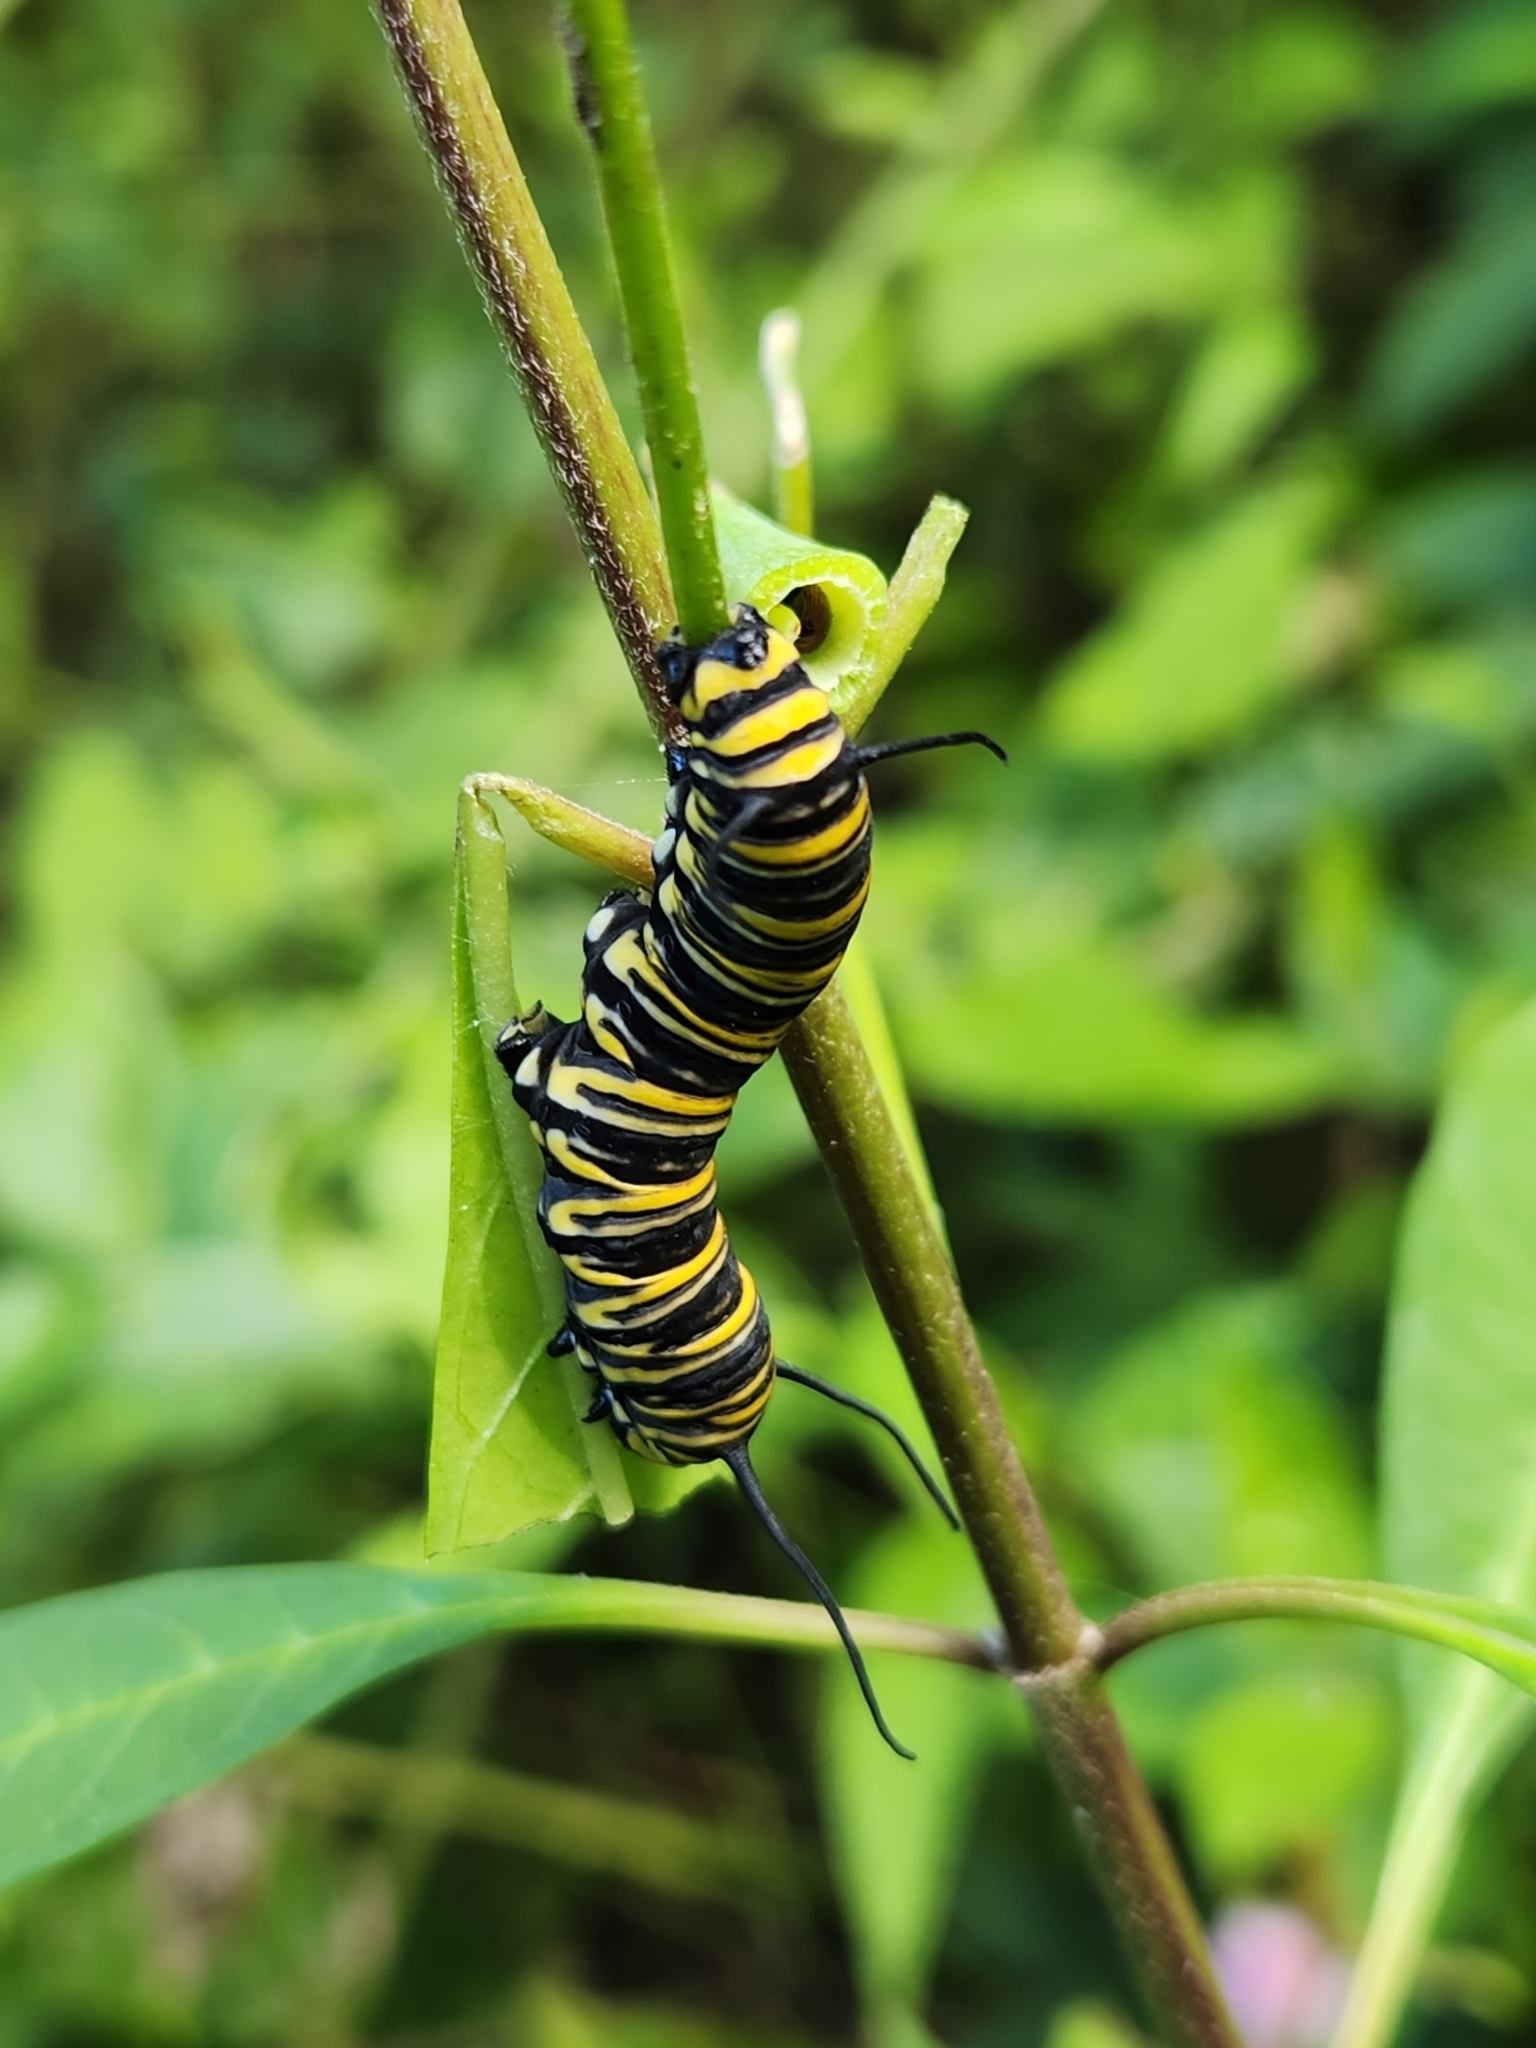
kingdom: Animalia
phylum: Arthropoda
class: Insecta
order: Lepidoptera
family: Nymphalidae
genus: Danaus
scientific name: Danaus plexippus
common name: Monarch
